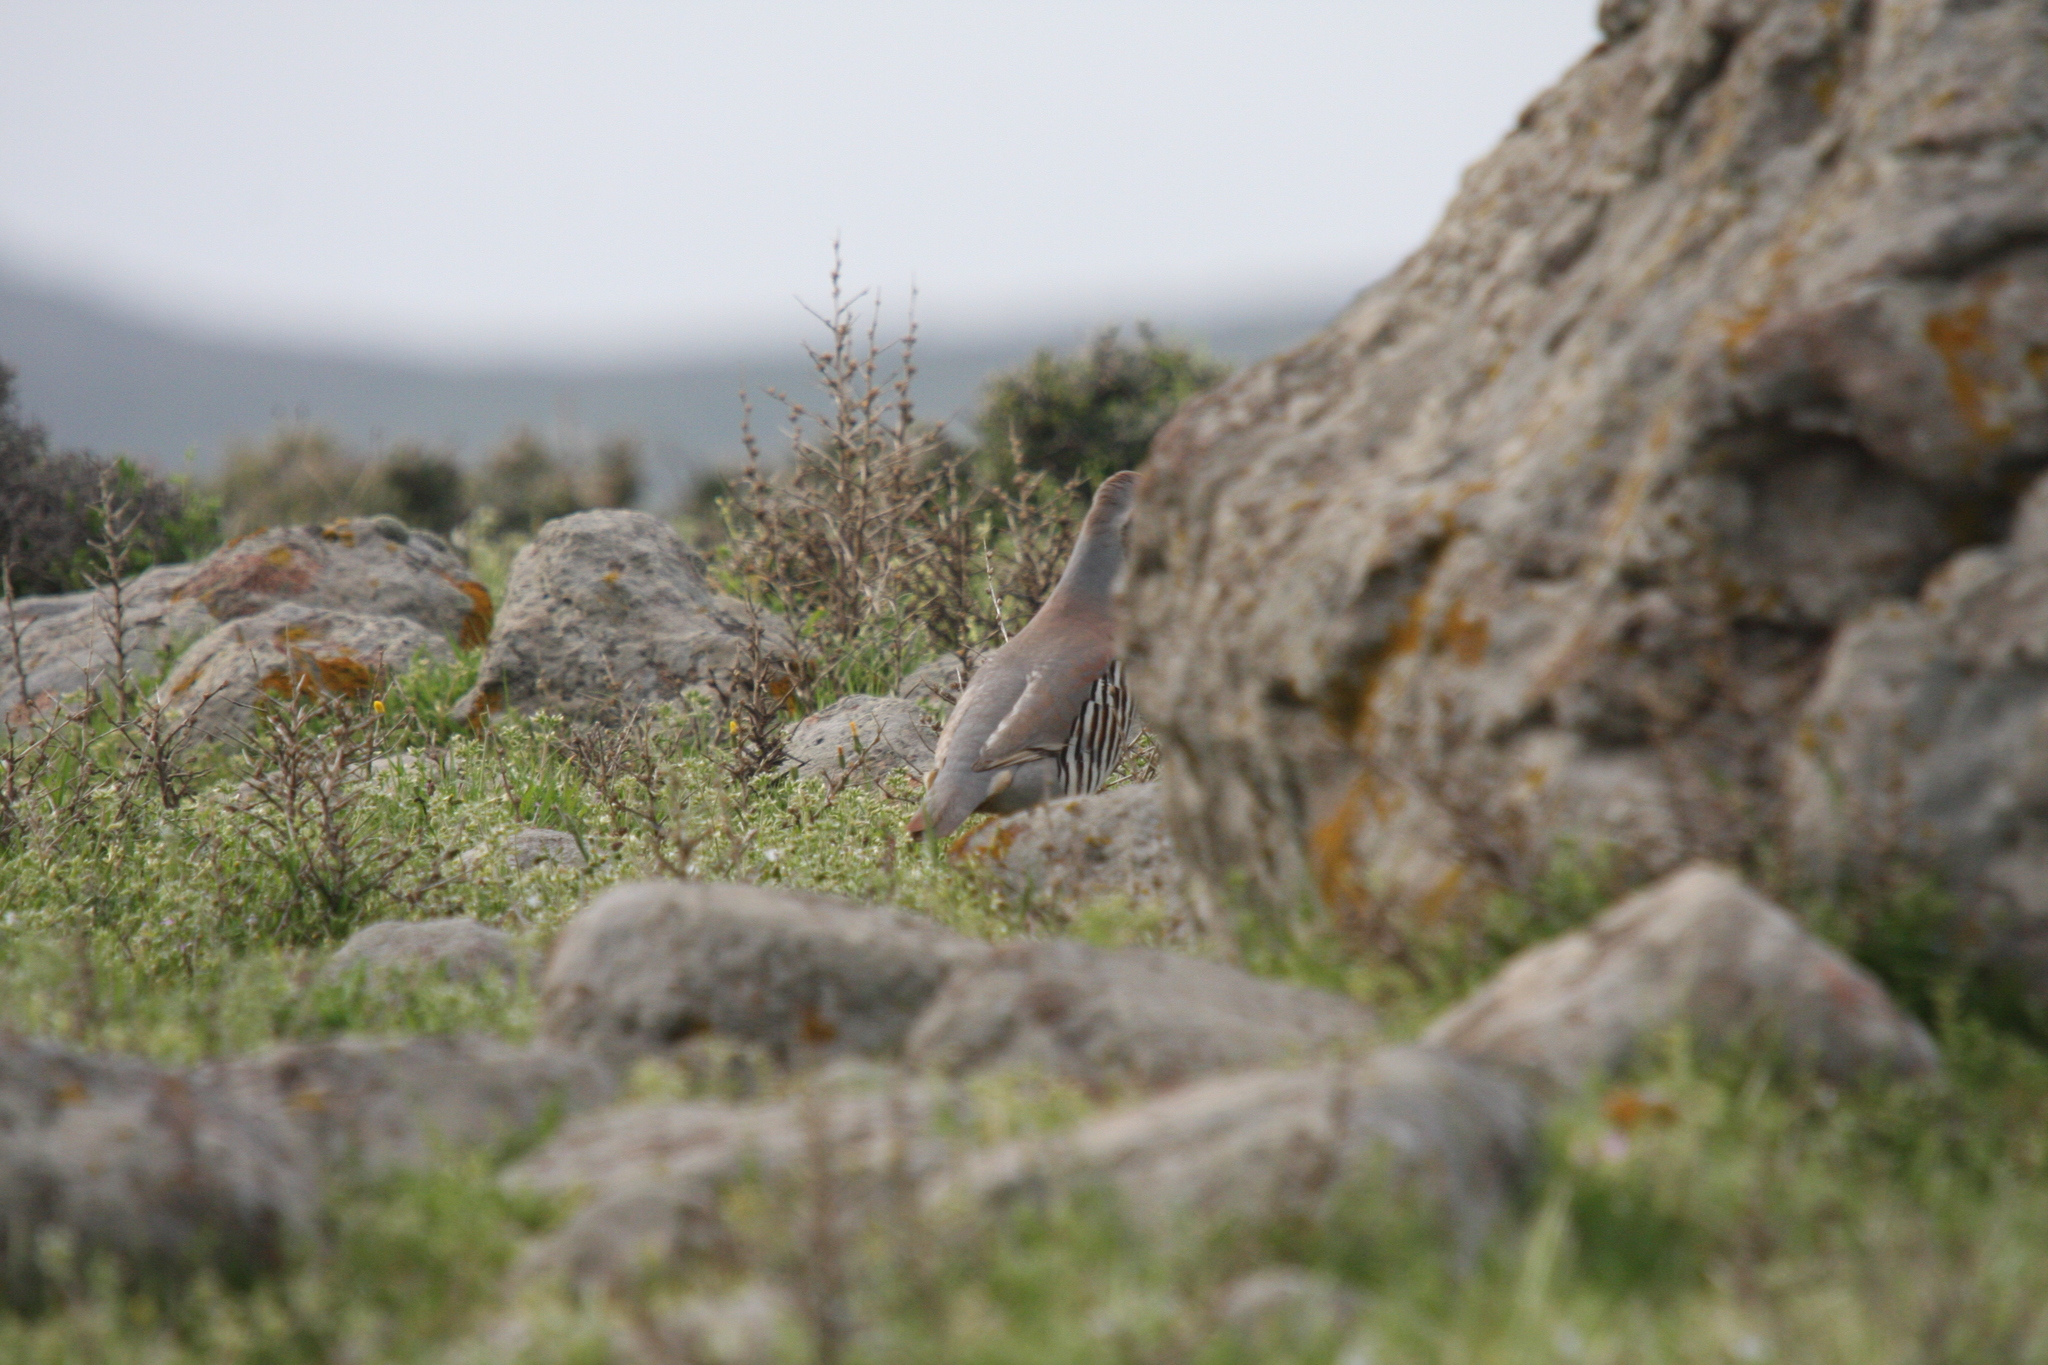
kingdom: Animalia
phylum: Chordata
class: Aves
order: Galliformes
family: Phasianidae
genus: Alectoris
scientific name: Alectoris chukar
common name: Chukar
